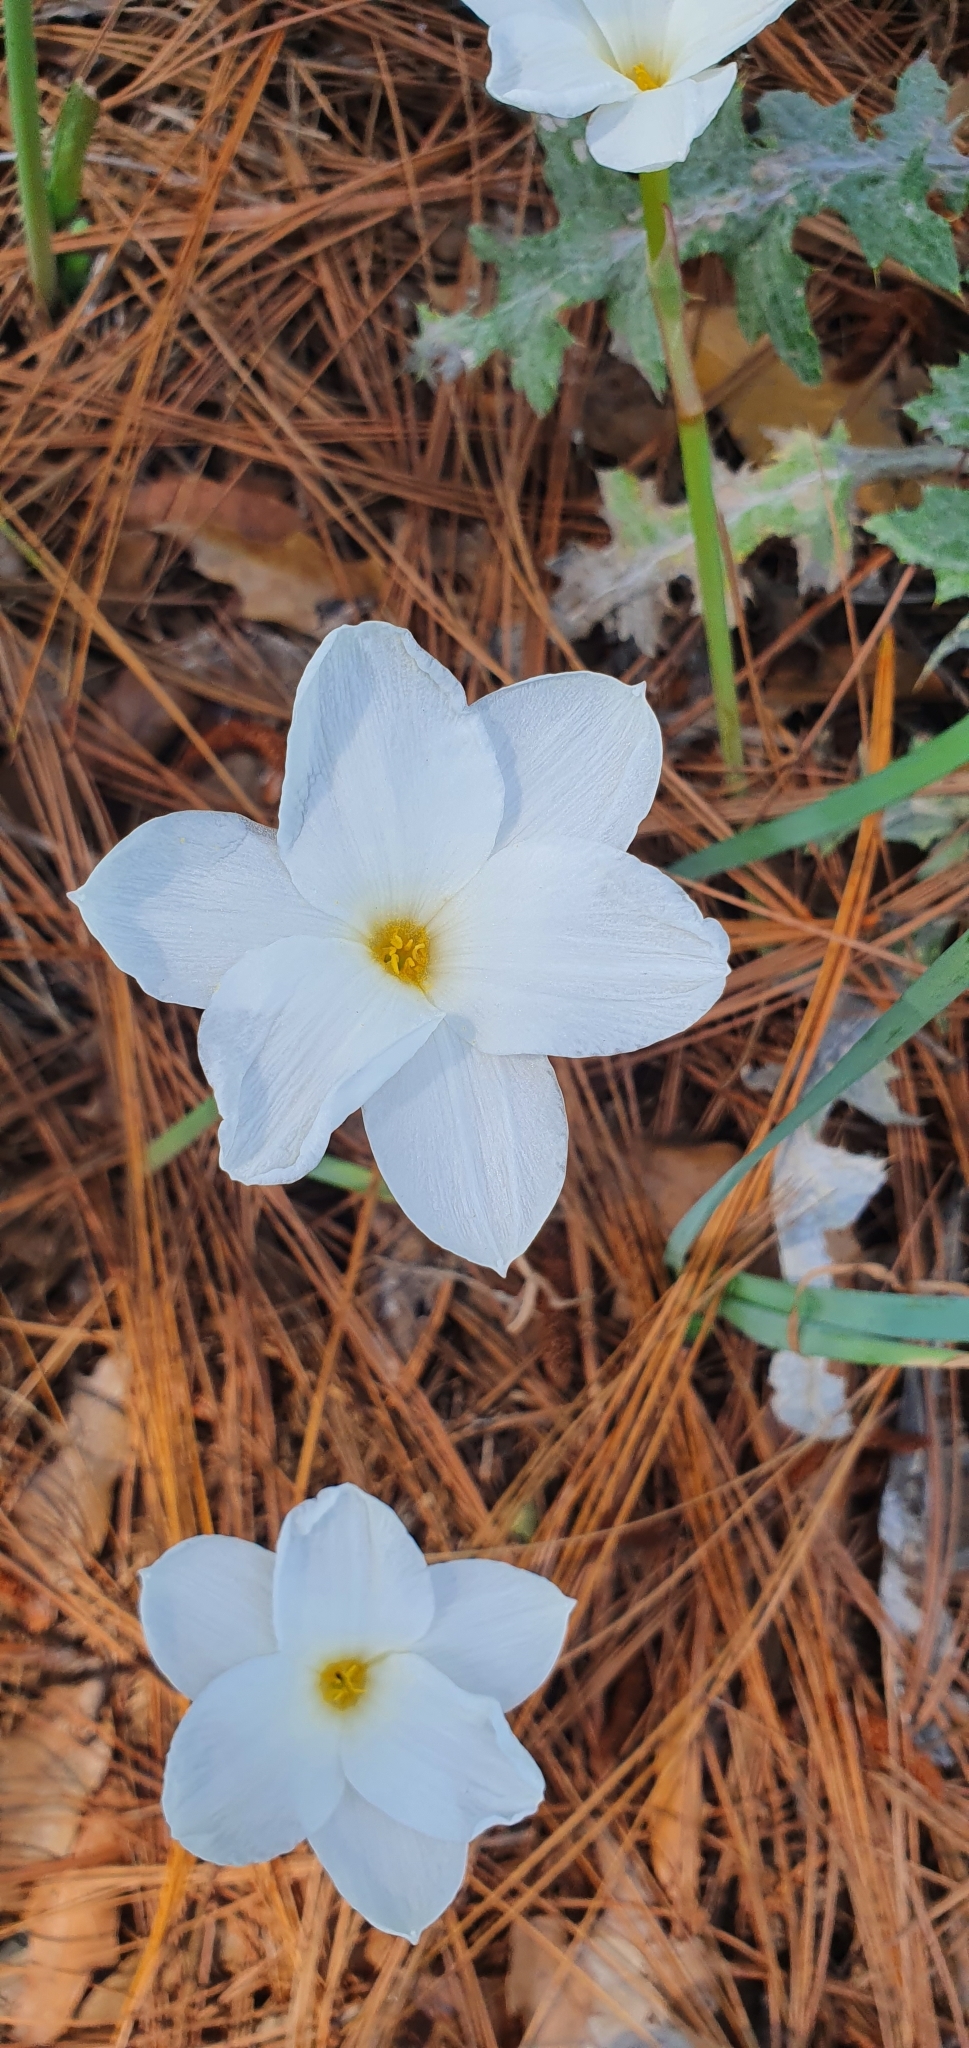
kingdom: Plantae
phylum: Tracheophyta
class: Liliopsida
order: Asparagales
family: Amaryllidaceae
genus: Zephyranthes
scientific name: Zephyranthes drummondii
